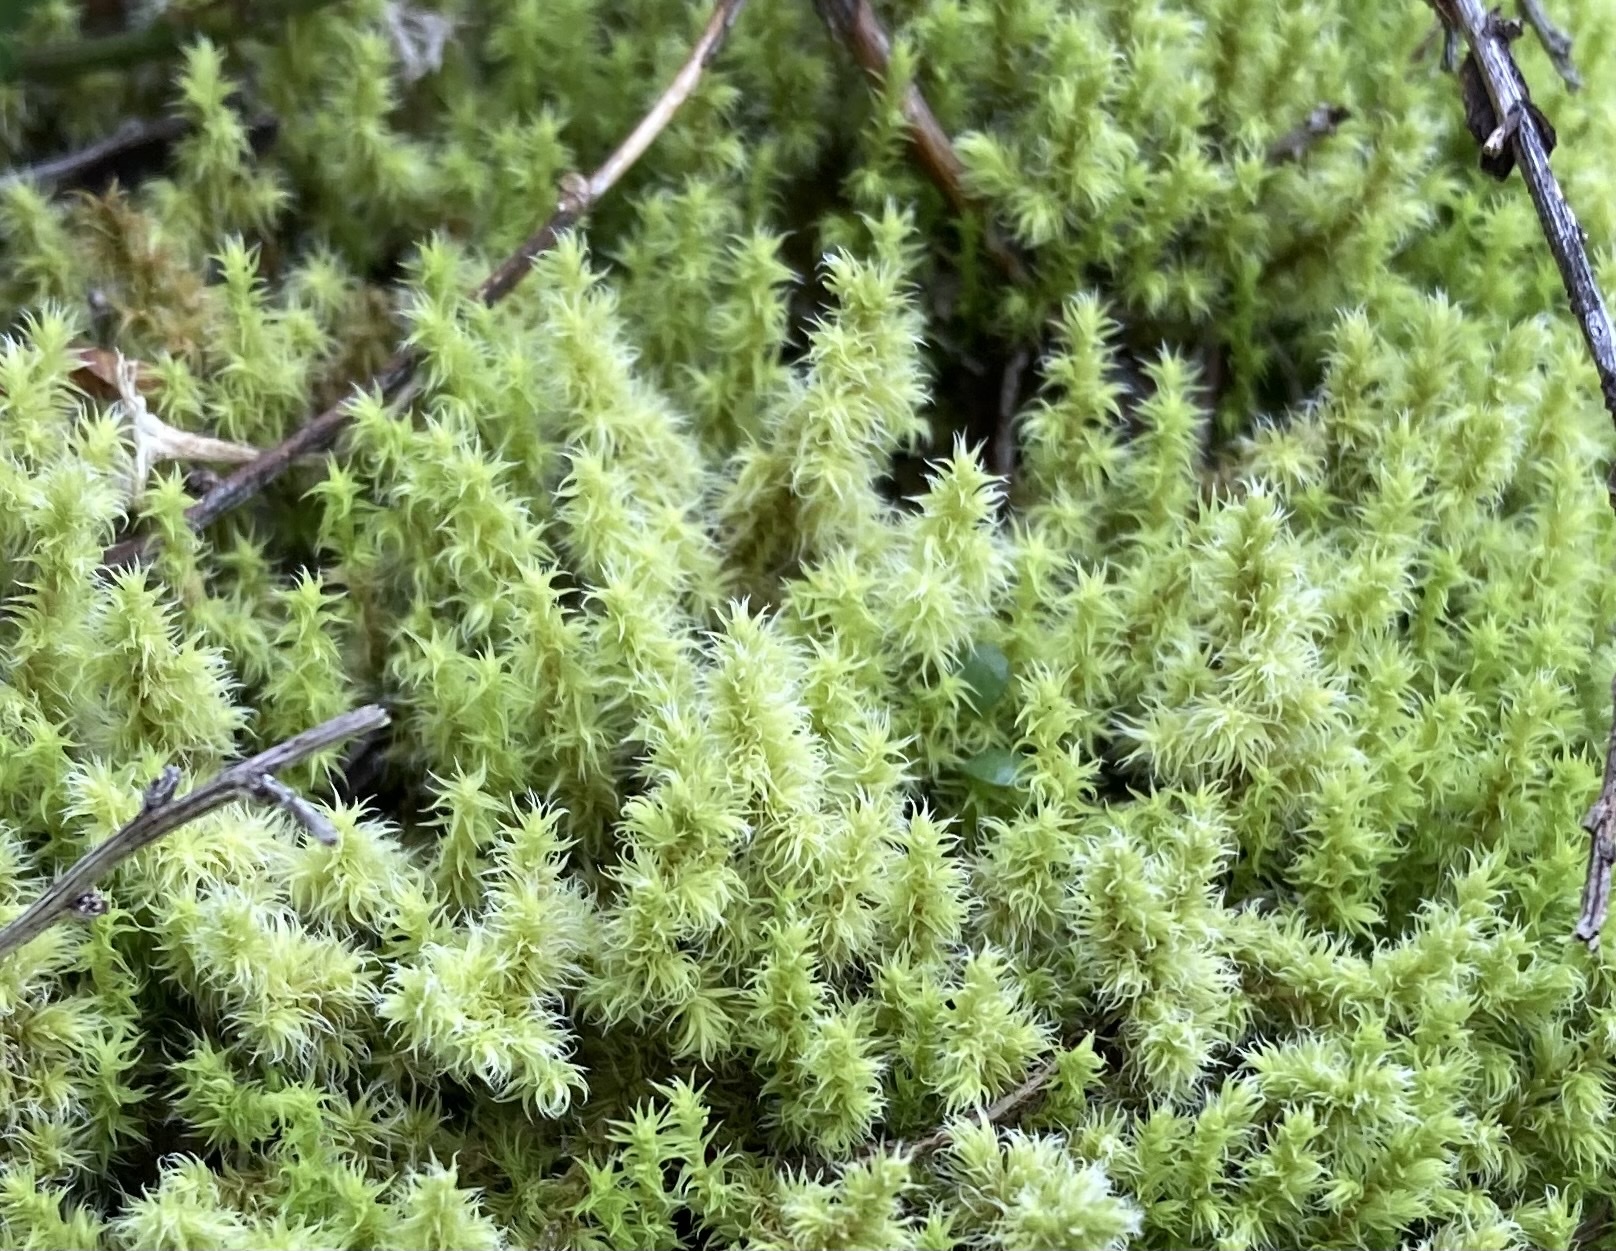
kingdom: Plantae
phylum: Bryophyta
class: Bryopsida
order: Grimmiales
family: Grimmiaceae
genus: Niphotrichum
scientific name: Niphotrichum elongatum
